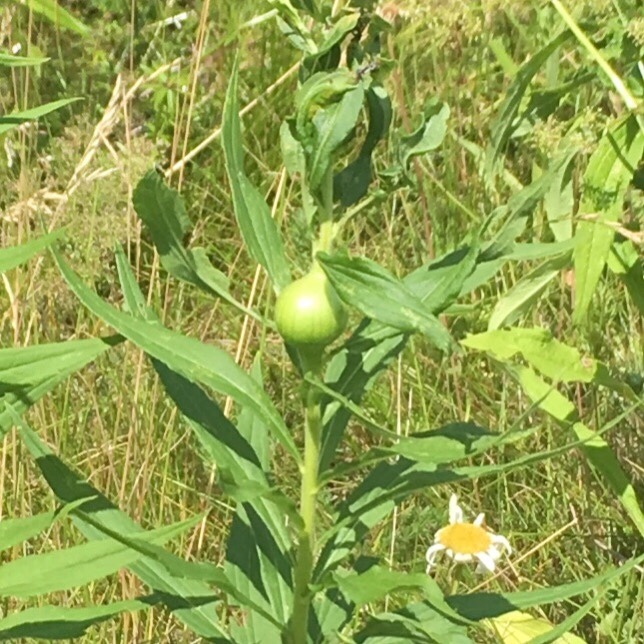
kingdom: Animalia
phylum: Arthropoda
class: Insecta
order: Diptera
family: Tephritidae
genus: Eurosta
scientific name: Eurosta solidaginis
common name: Goldenrod gall fly
